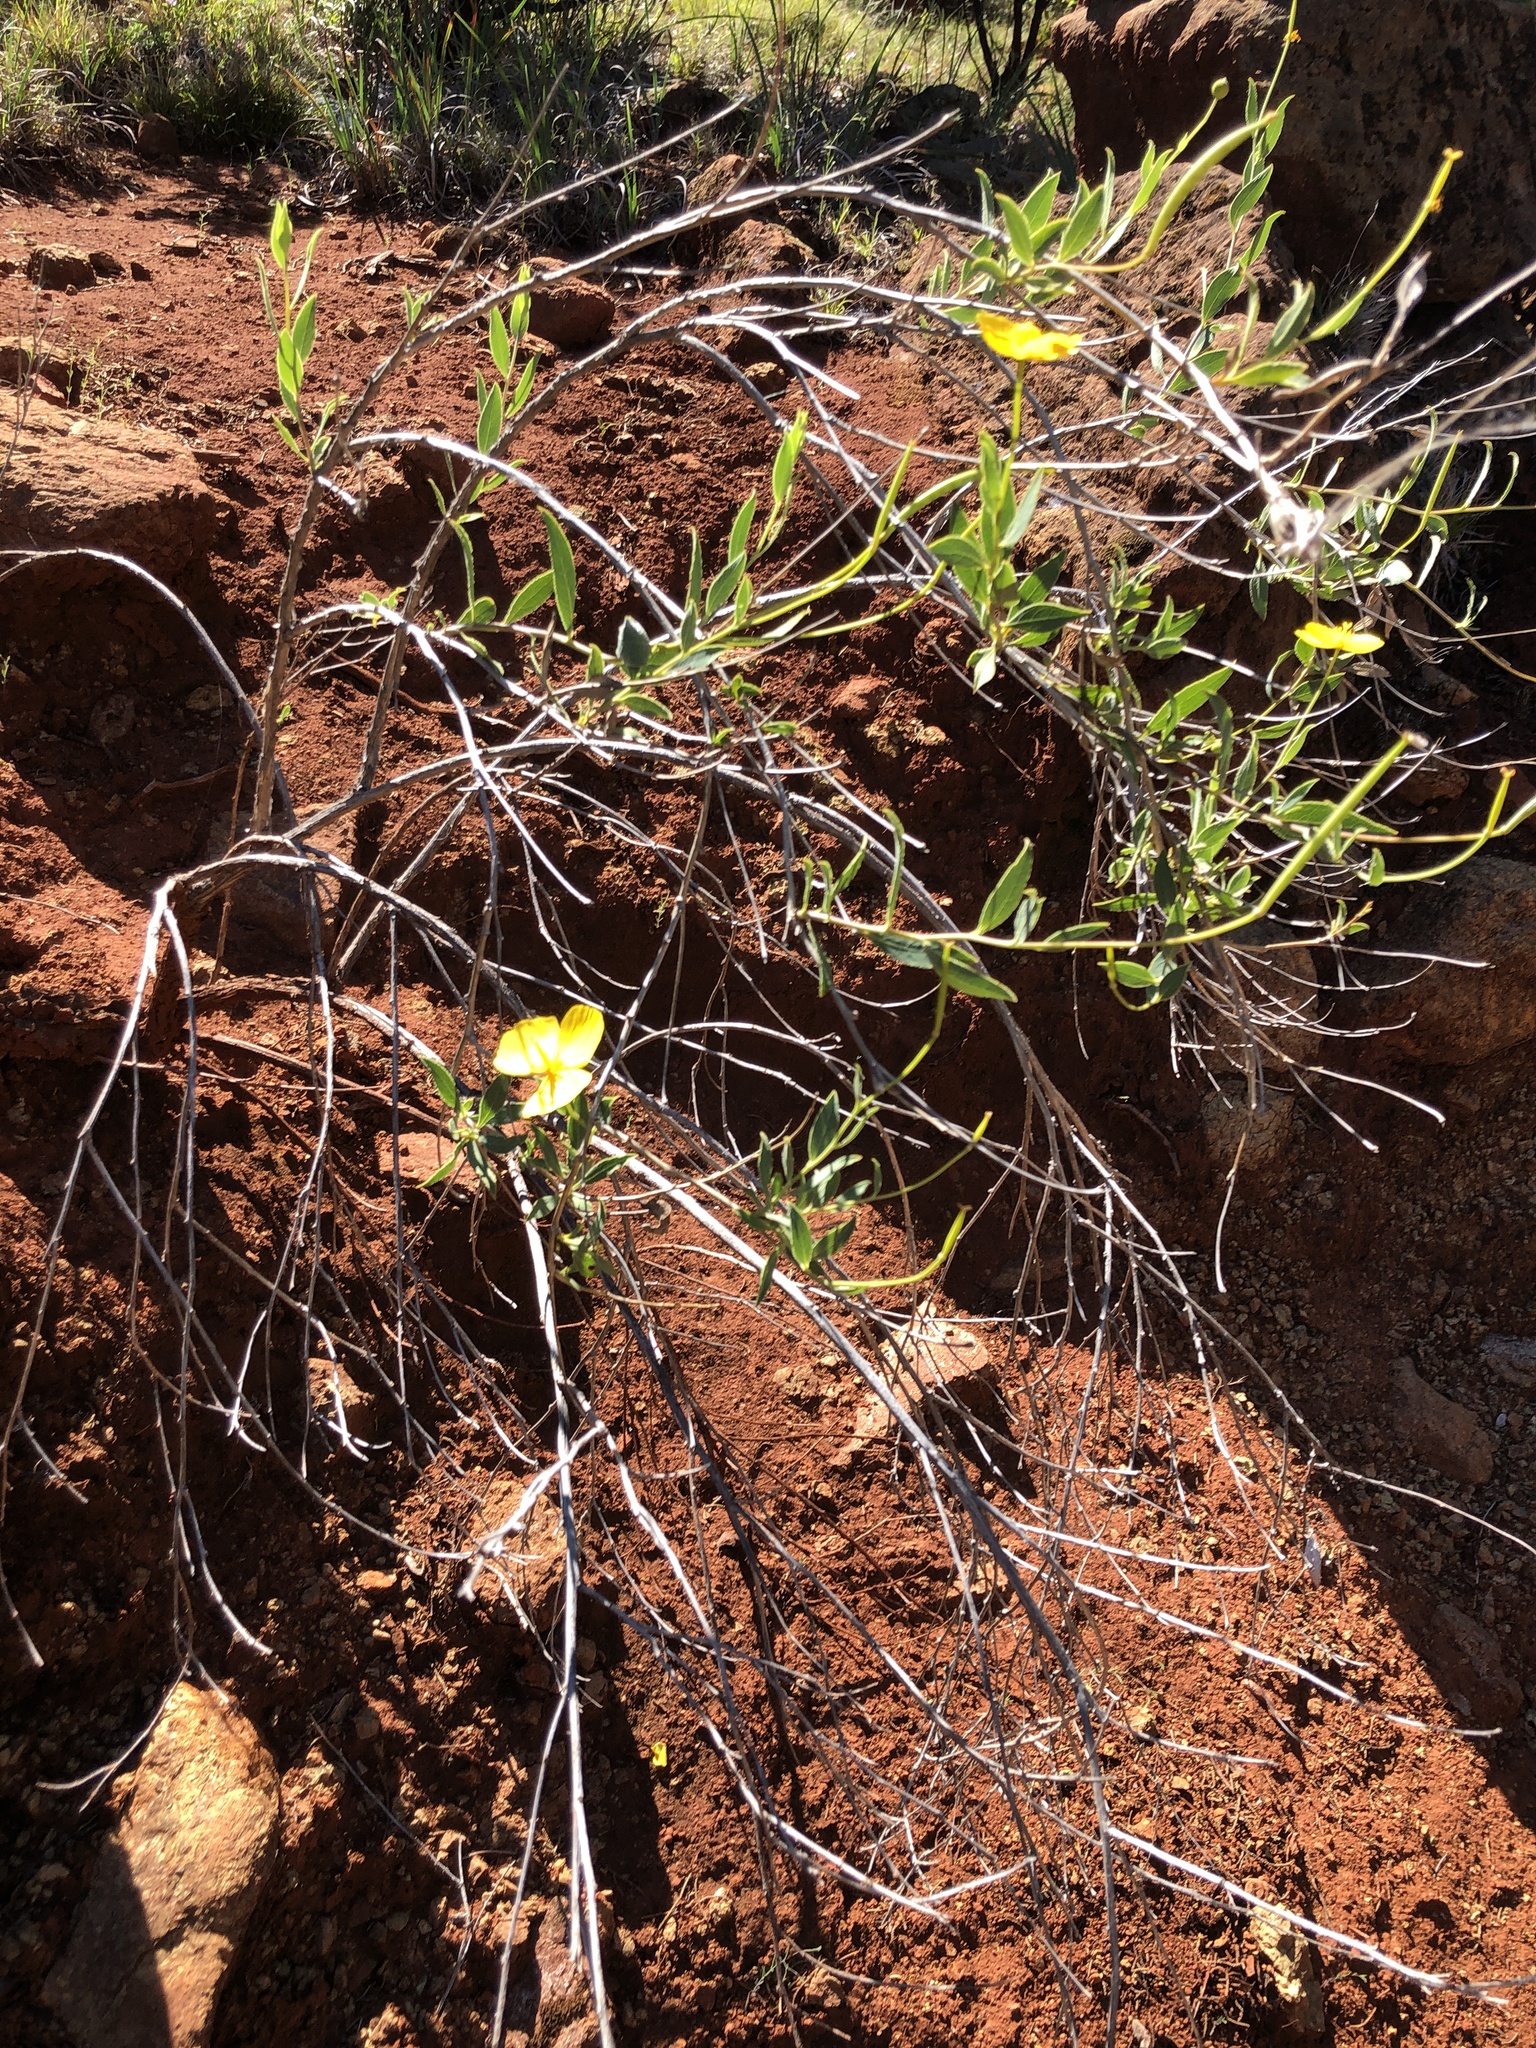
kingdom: Plantae
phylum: Tracheophyta
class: Magnoliopsida
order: Ranunculales
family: Papaveraceae
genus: Dendromecon
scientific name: Dendromecon rigida
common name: Tree poppy
